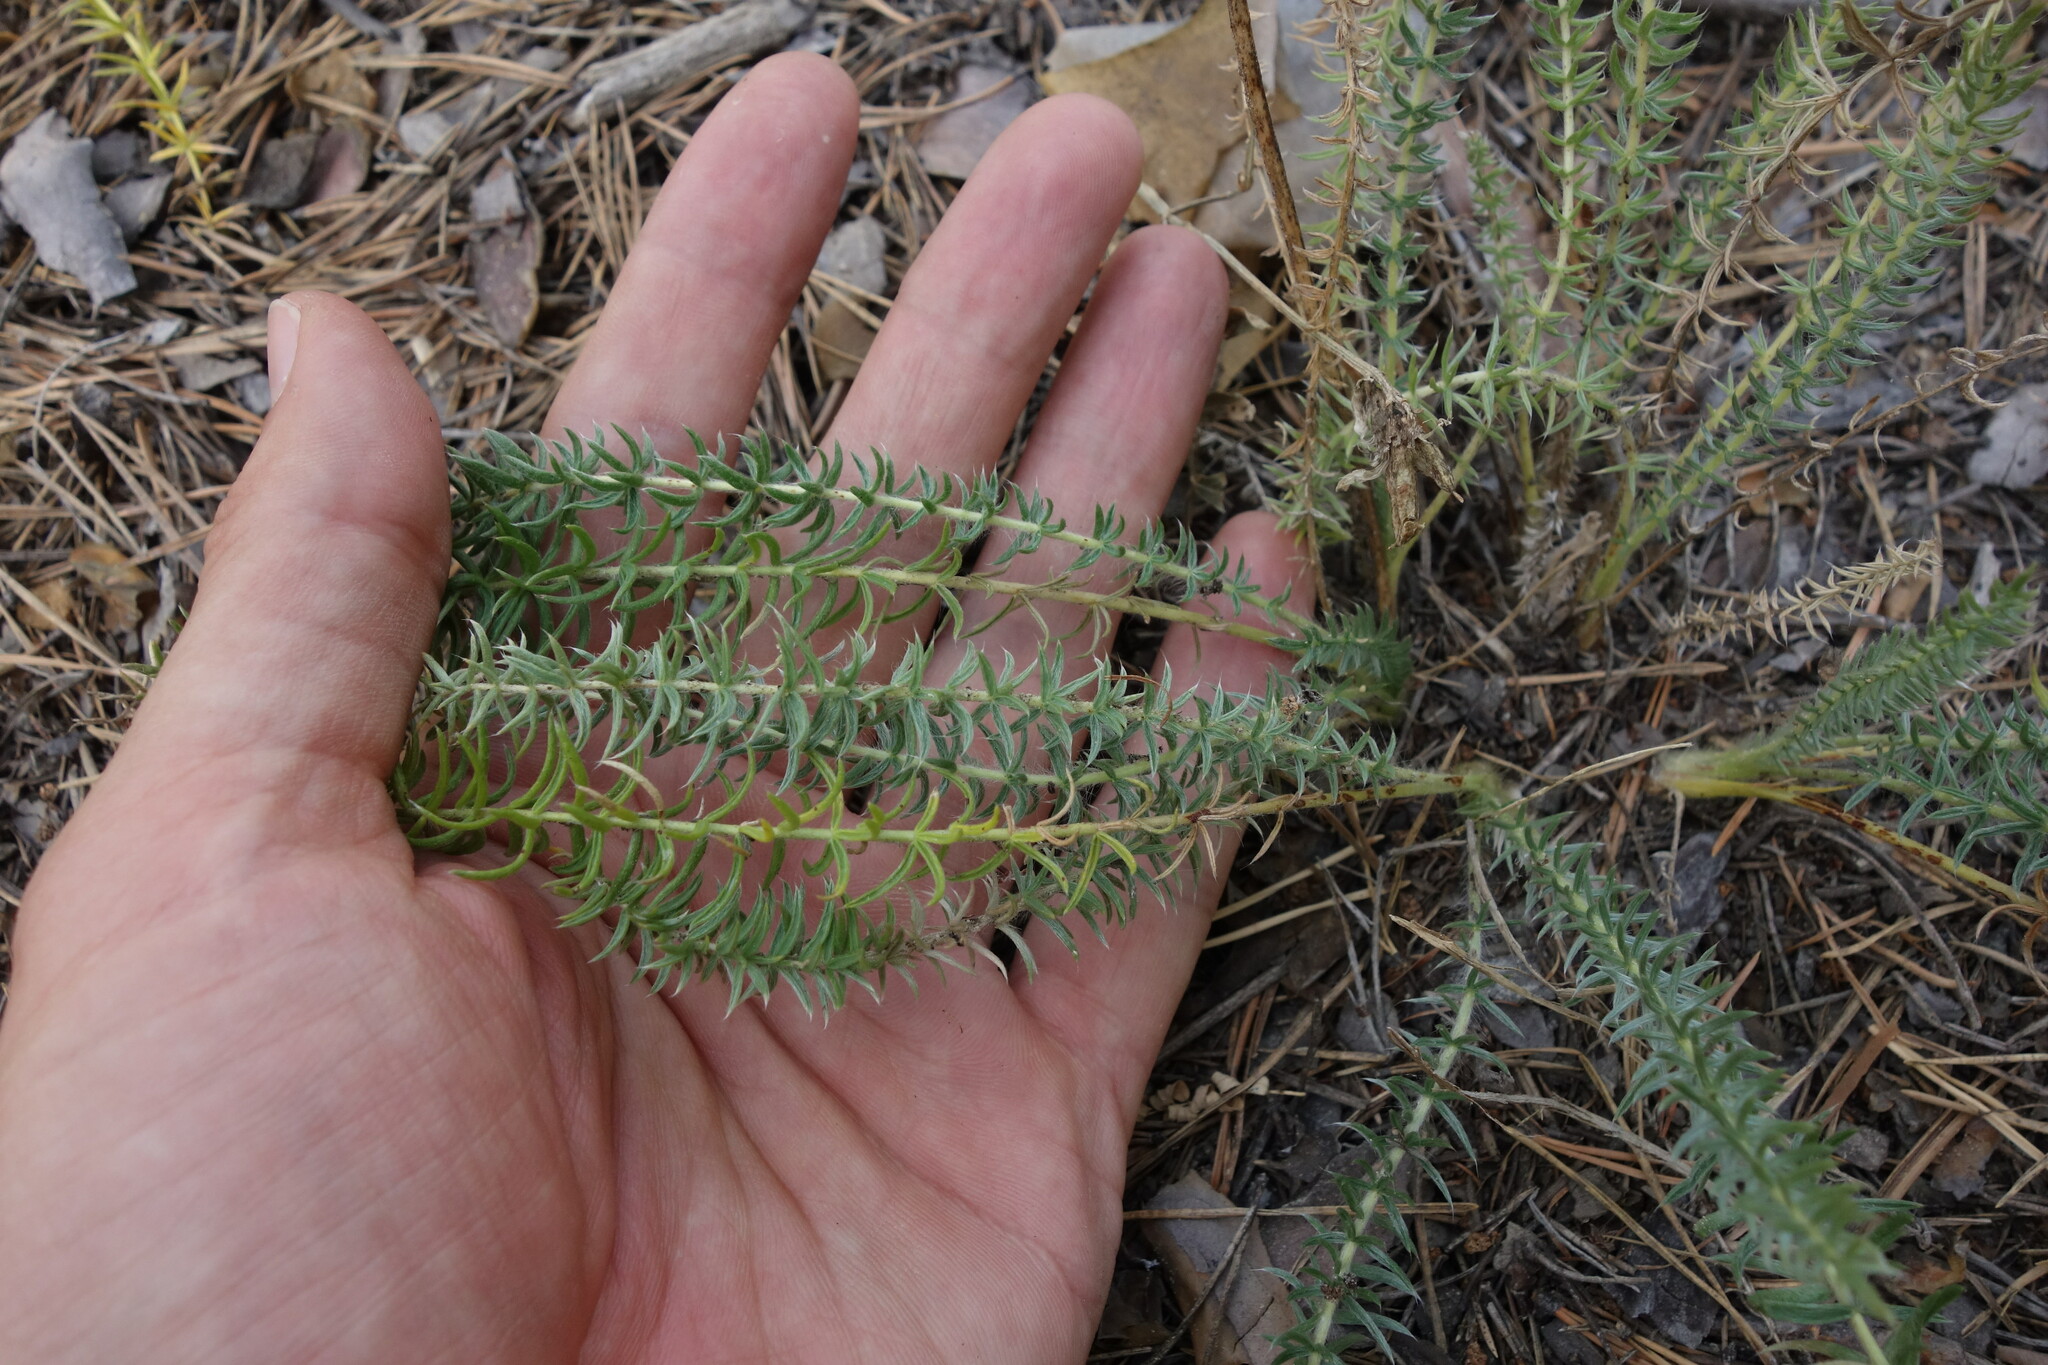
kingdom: Plantae
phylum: Tracheophyta
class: Magnoliopsida
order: Fabales
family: Fabaceae
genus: Oxytropis
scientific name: Oxytropis myriophylla
